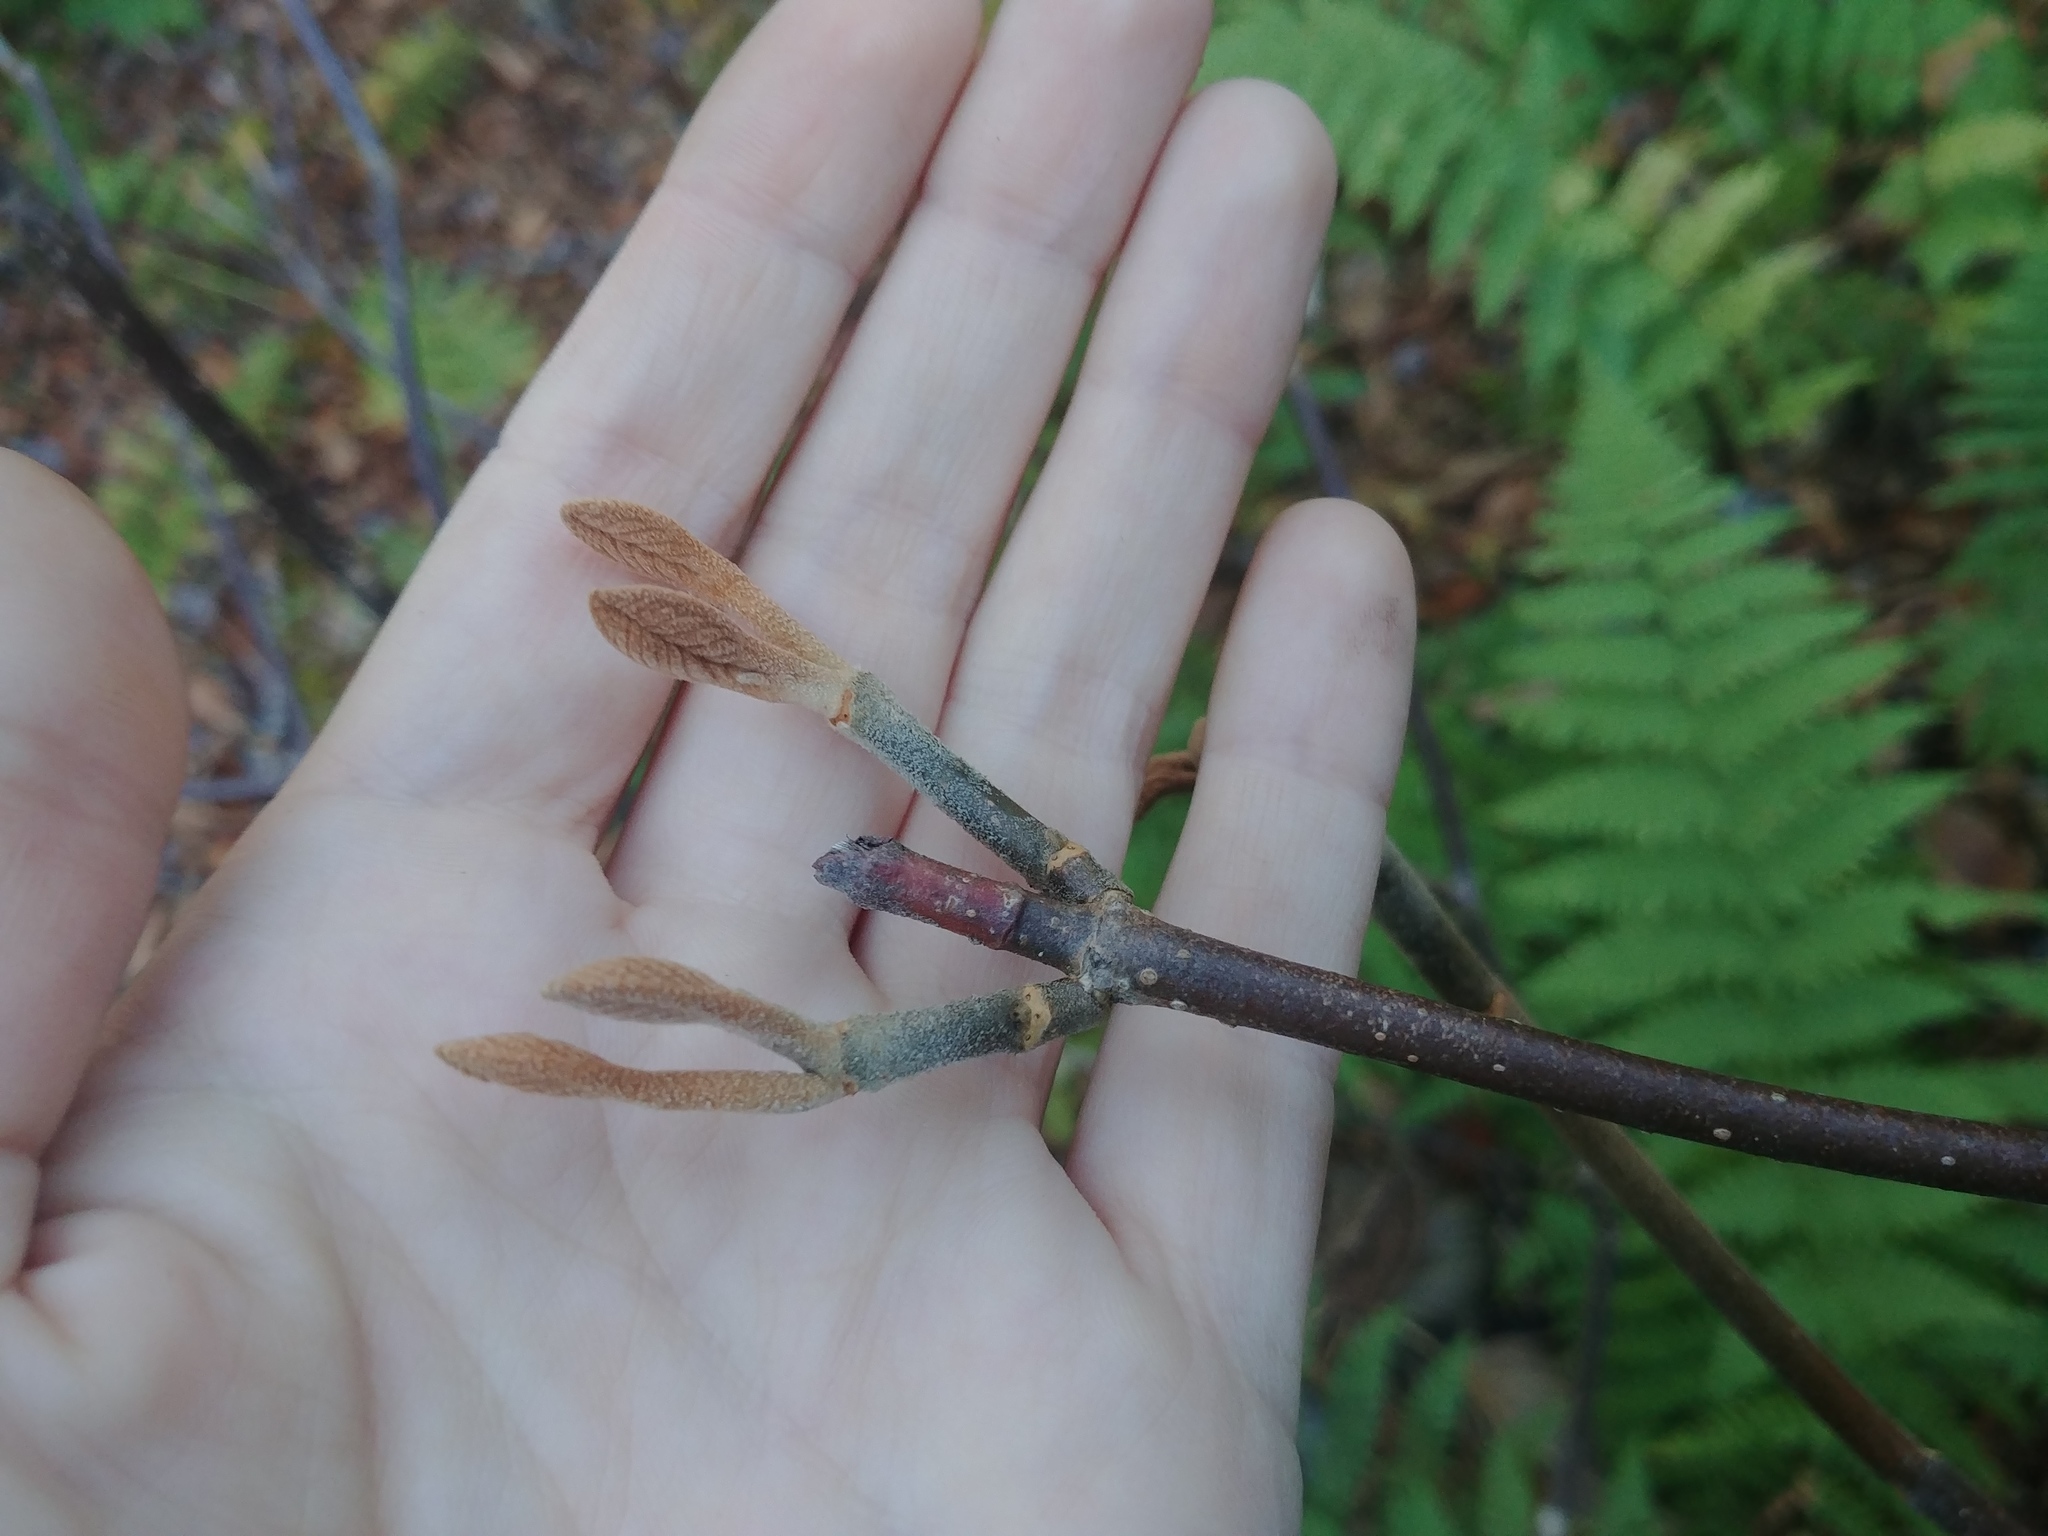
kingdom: Plantae
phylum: Tracheophyta
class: Magnoliopsida
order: Dipsacales
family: Viburnaceae
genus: Viburnum
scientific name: Viburnum lantanoides
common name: Hobblebush
